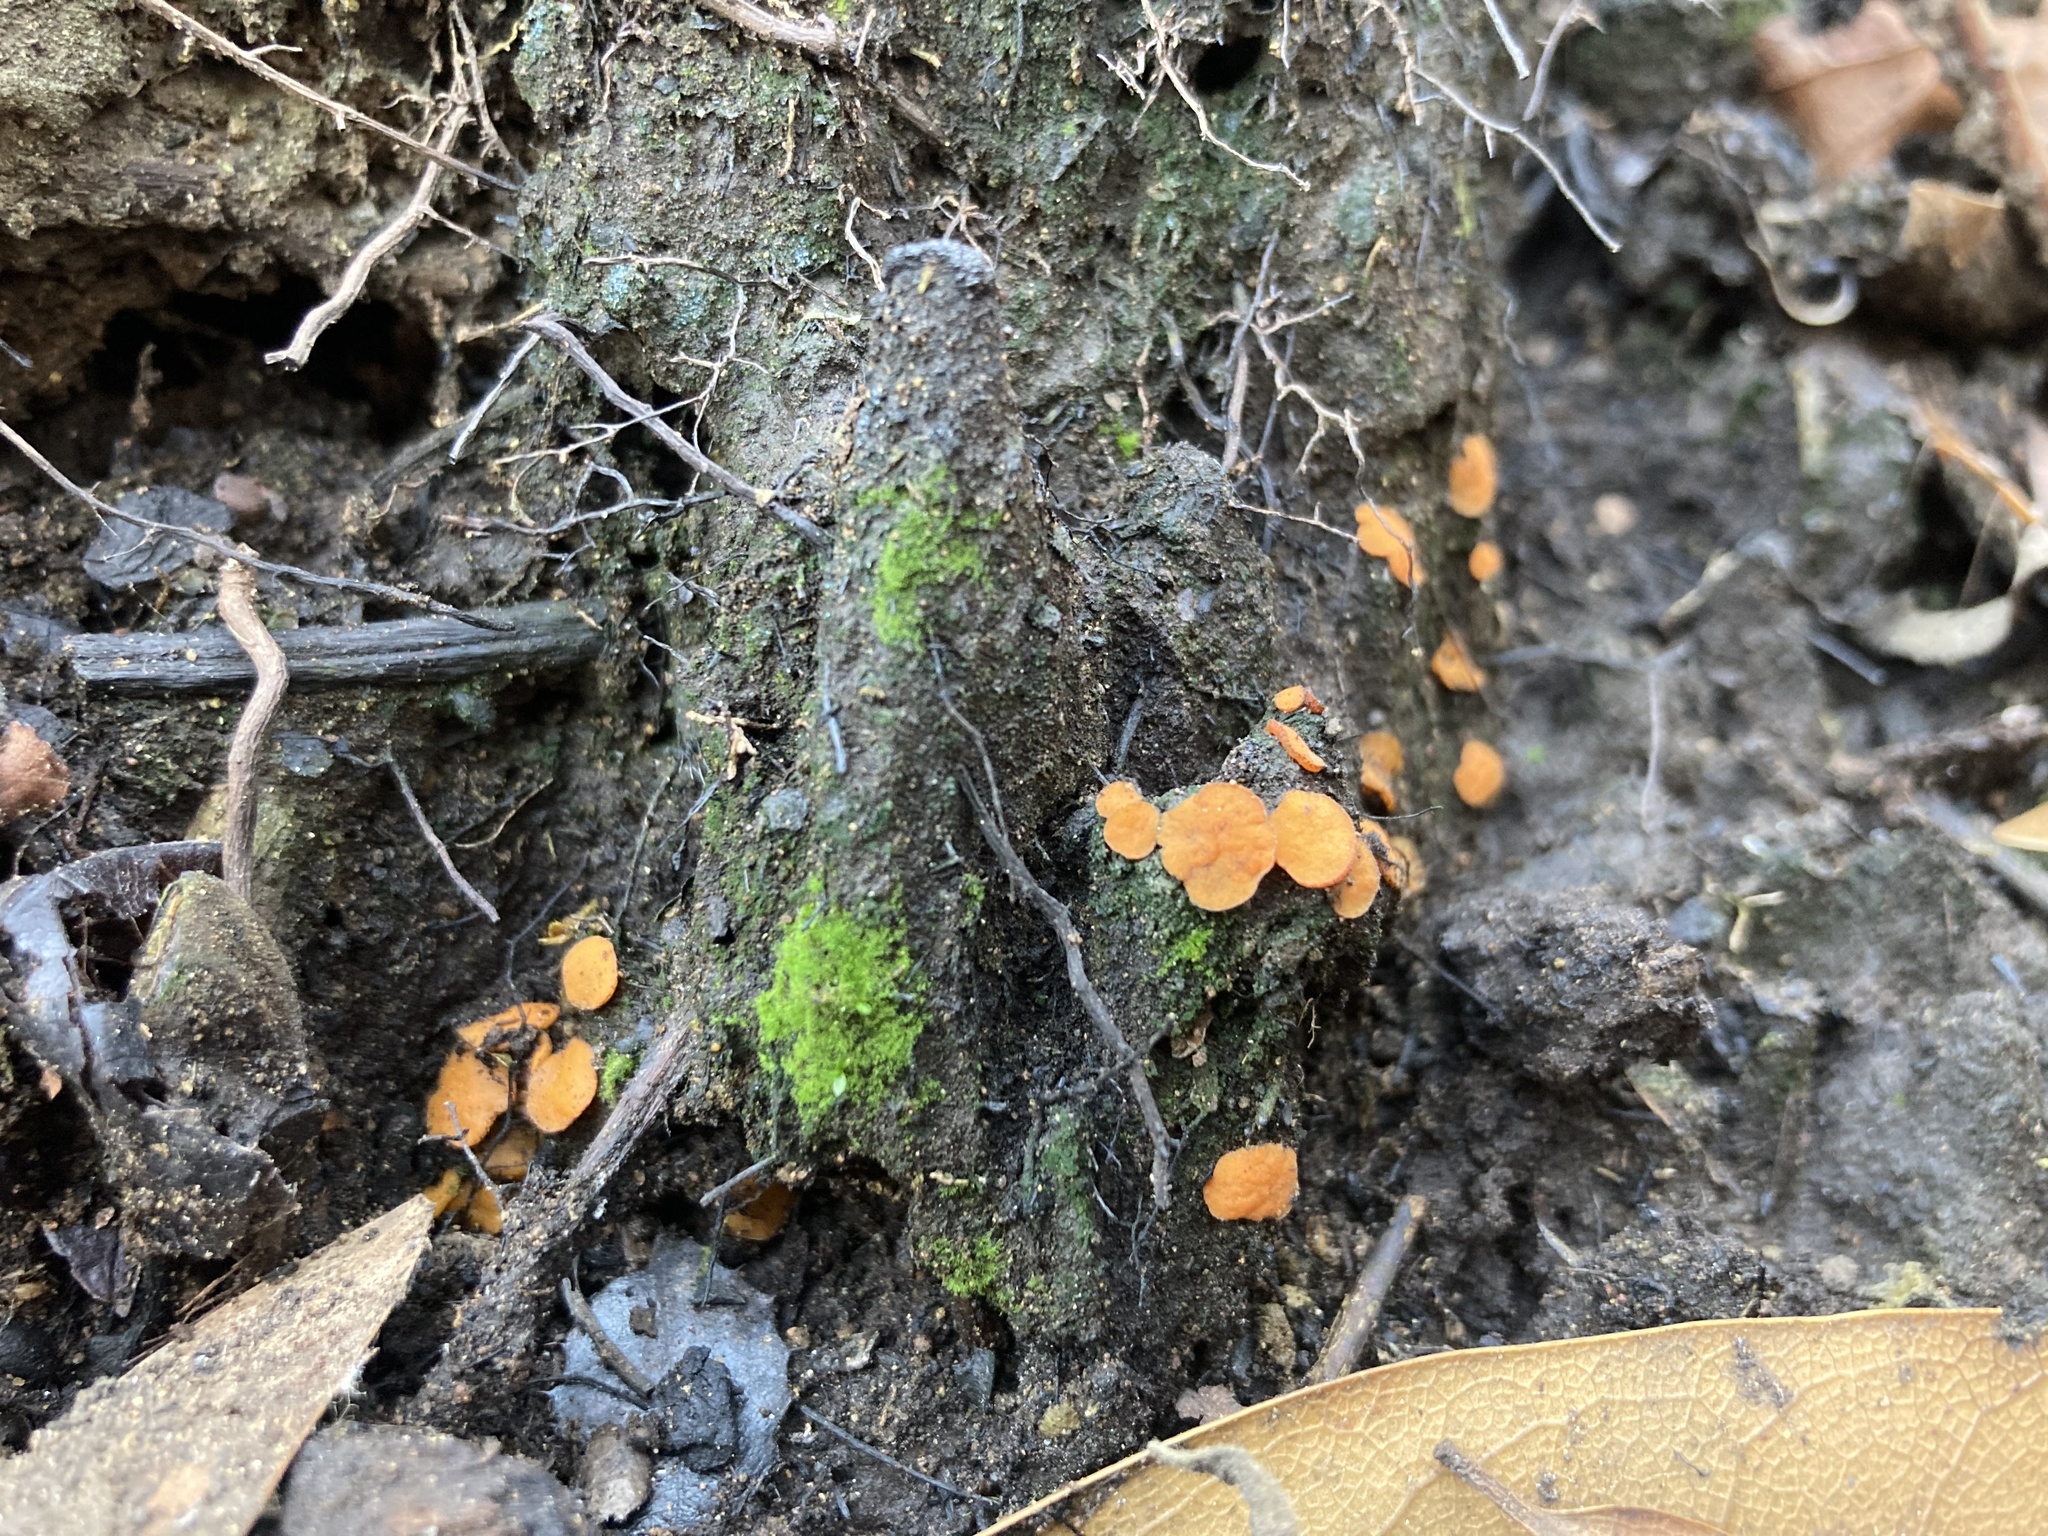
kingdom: Fungi
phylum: Ascomycota
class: Pezizomycetes
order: Pezizales
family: Pyronemataceae
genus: Anthracobia
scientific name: Anthracobia melaloma
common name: Charcoal eyelash
